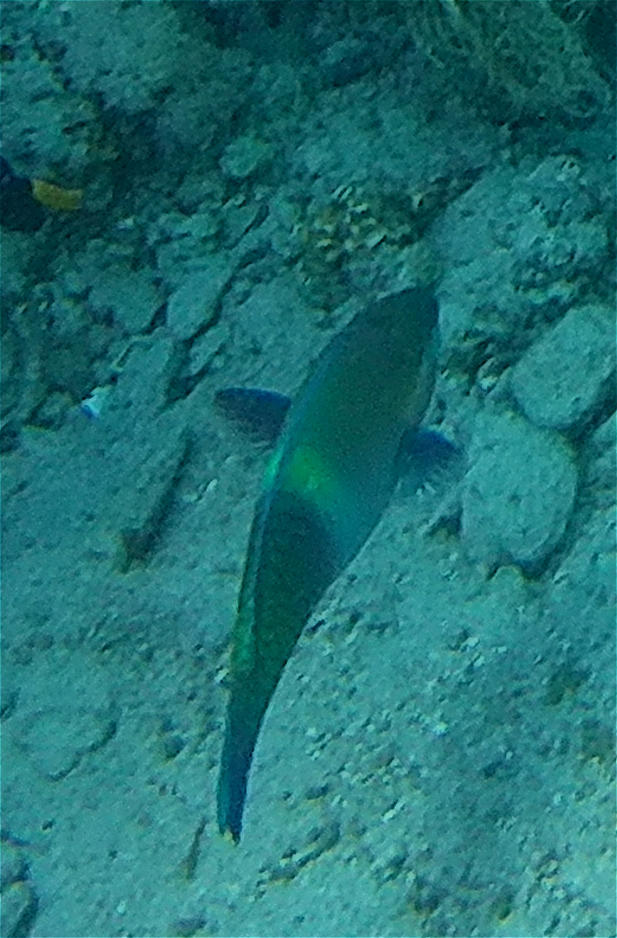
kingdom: Animalia
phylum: Chordata
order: Perciformes
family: Scaridae
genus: Scarus
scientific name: Scarus ferrugineus
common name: Rusty parrotfish
